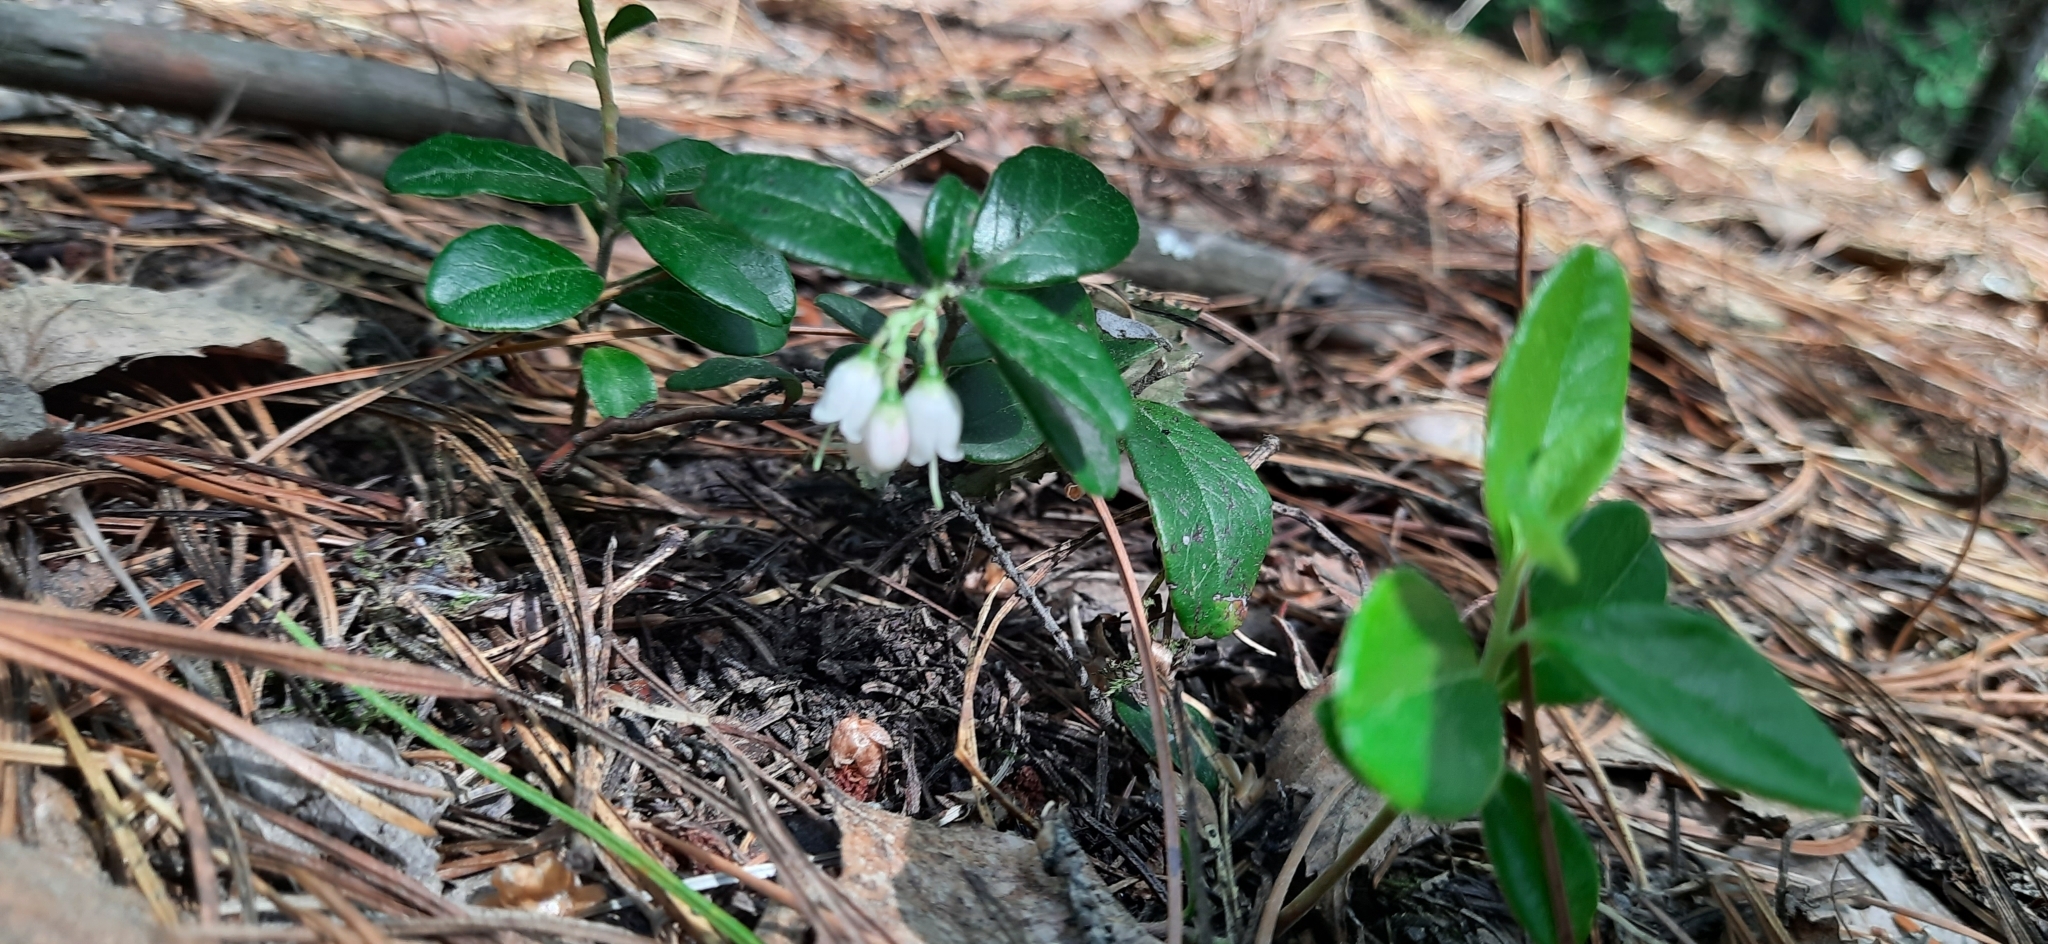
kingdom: Plantae
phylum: Tracheophyta
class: Magnoliopsida
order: Ericales
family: Ericaceae
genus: Vaccinium
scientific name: Vaccinium vitis-idaea
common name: Cowberry
